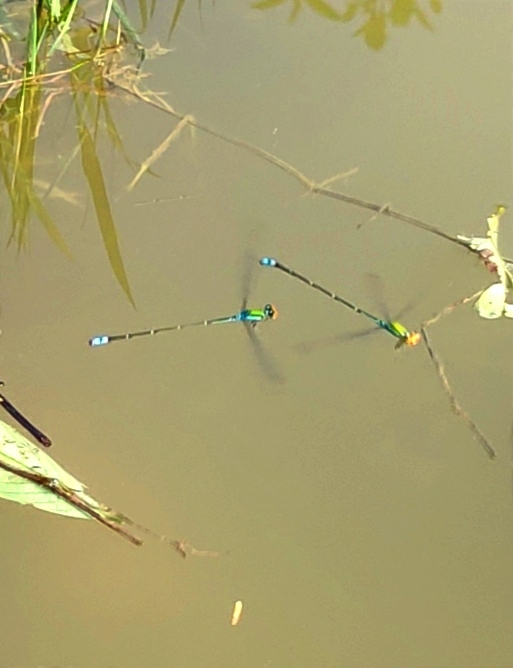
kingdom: Animalia
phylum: Arthropoda
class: Insecta
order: Odonata
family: Coenagrionidae
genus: Pseudagrion
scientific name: Pseudagrion rubriceps
